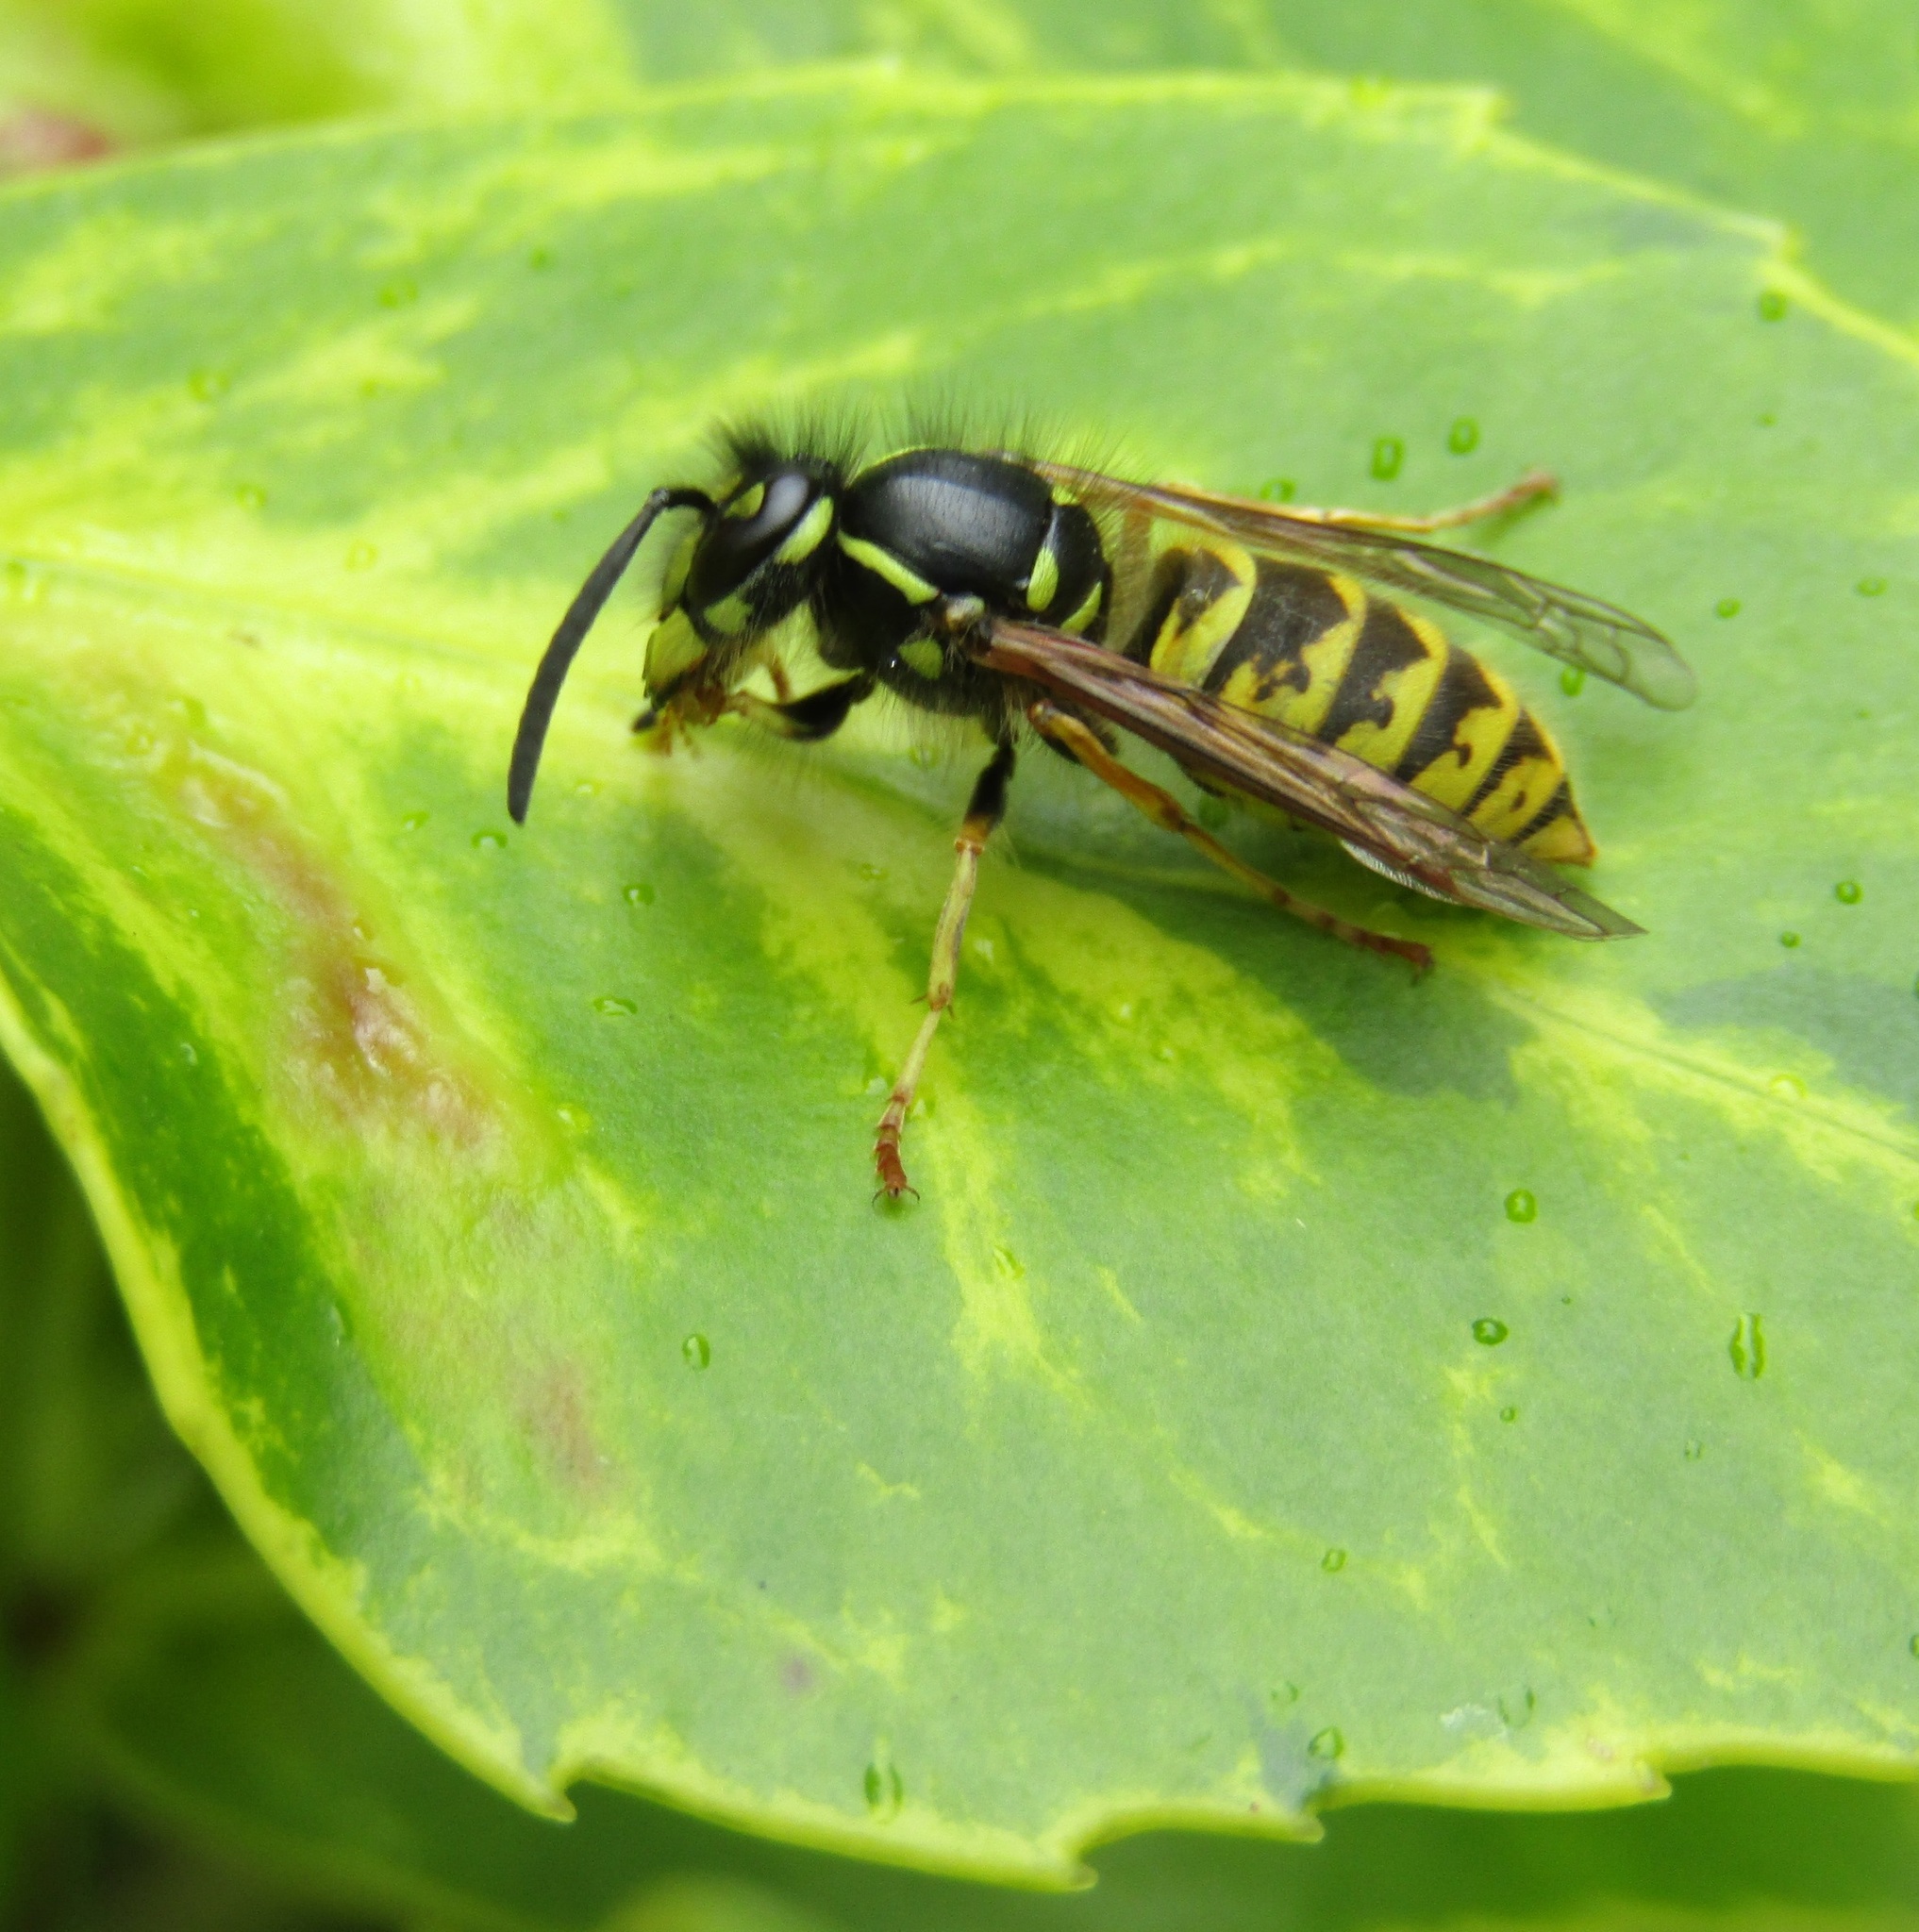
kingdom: Animalia
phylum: Arthropoda
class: Insecta
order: Hymenoptera
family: Vespidae
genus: Vespula
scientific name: Vespula vulgaris
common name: Common wasp
